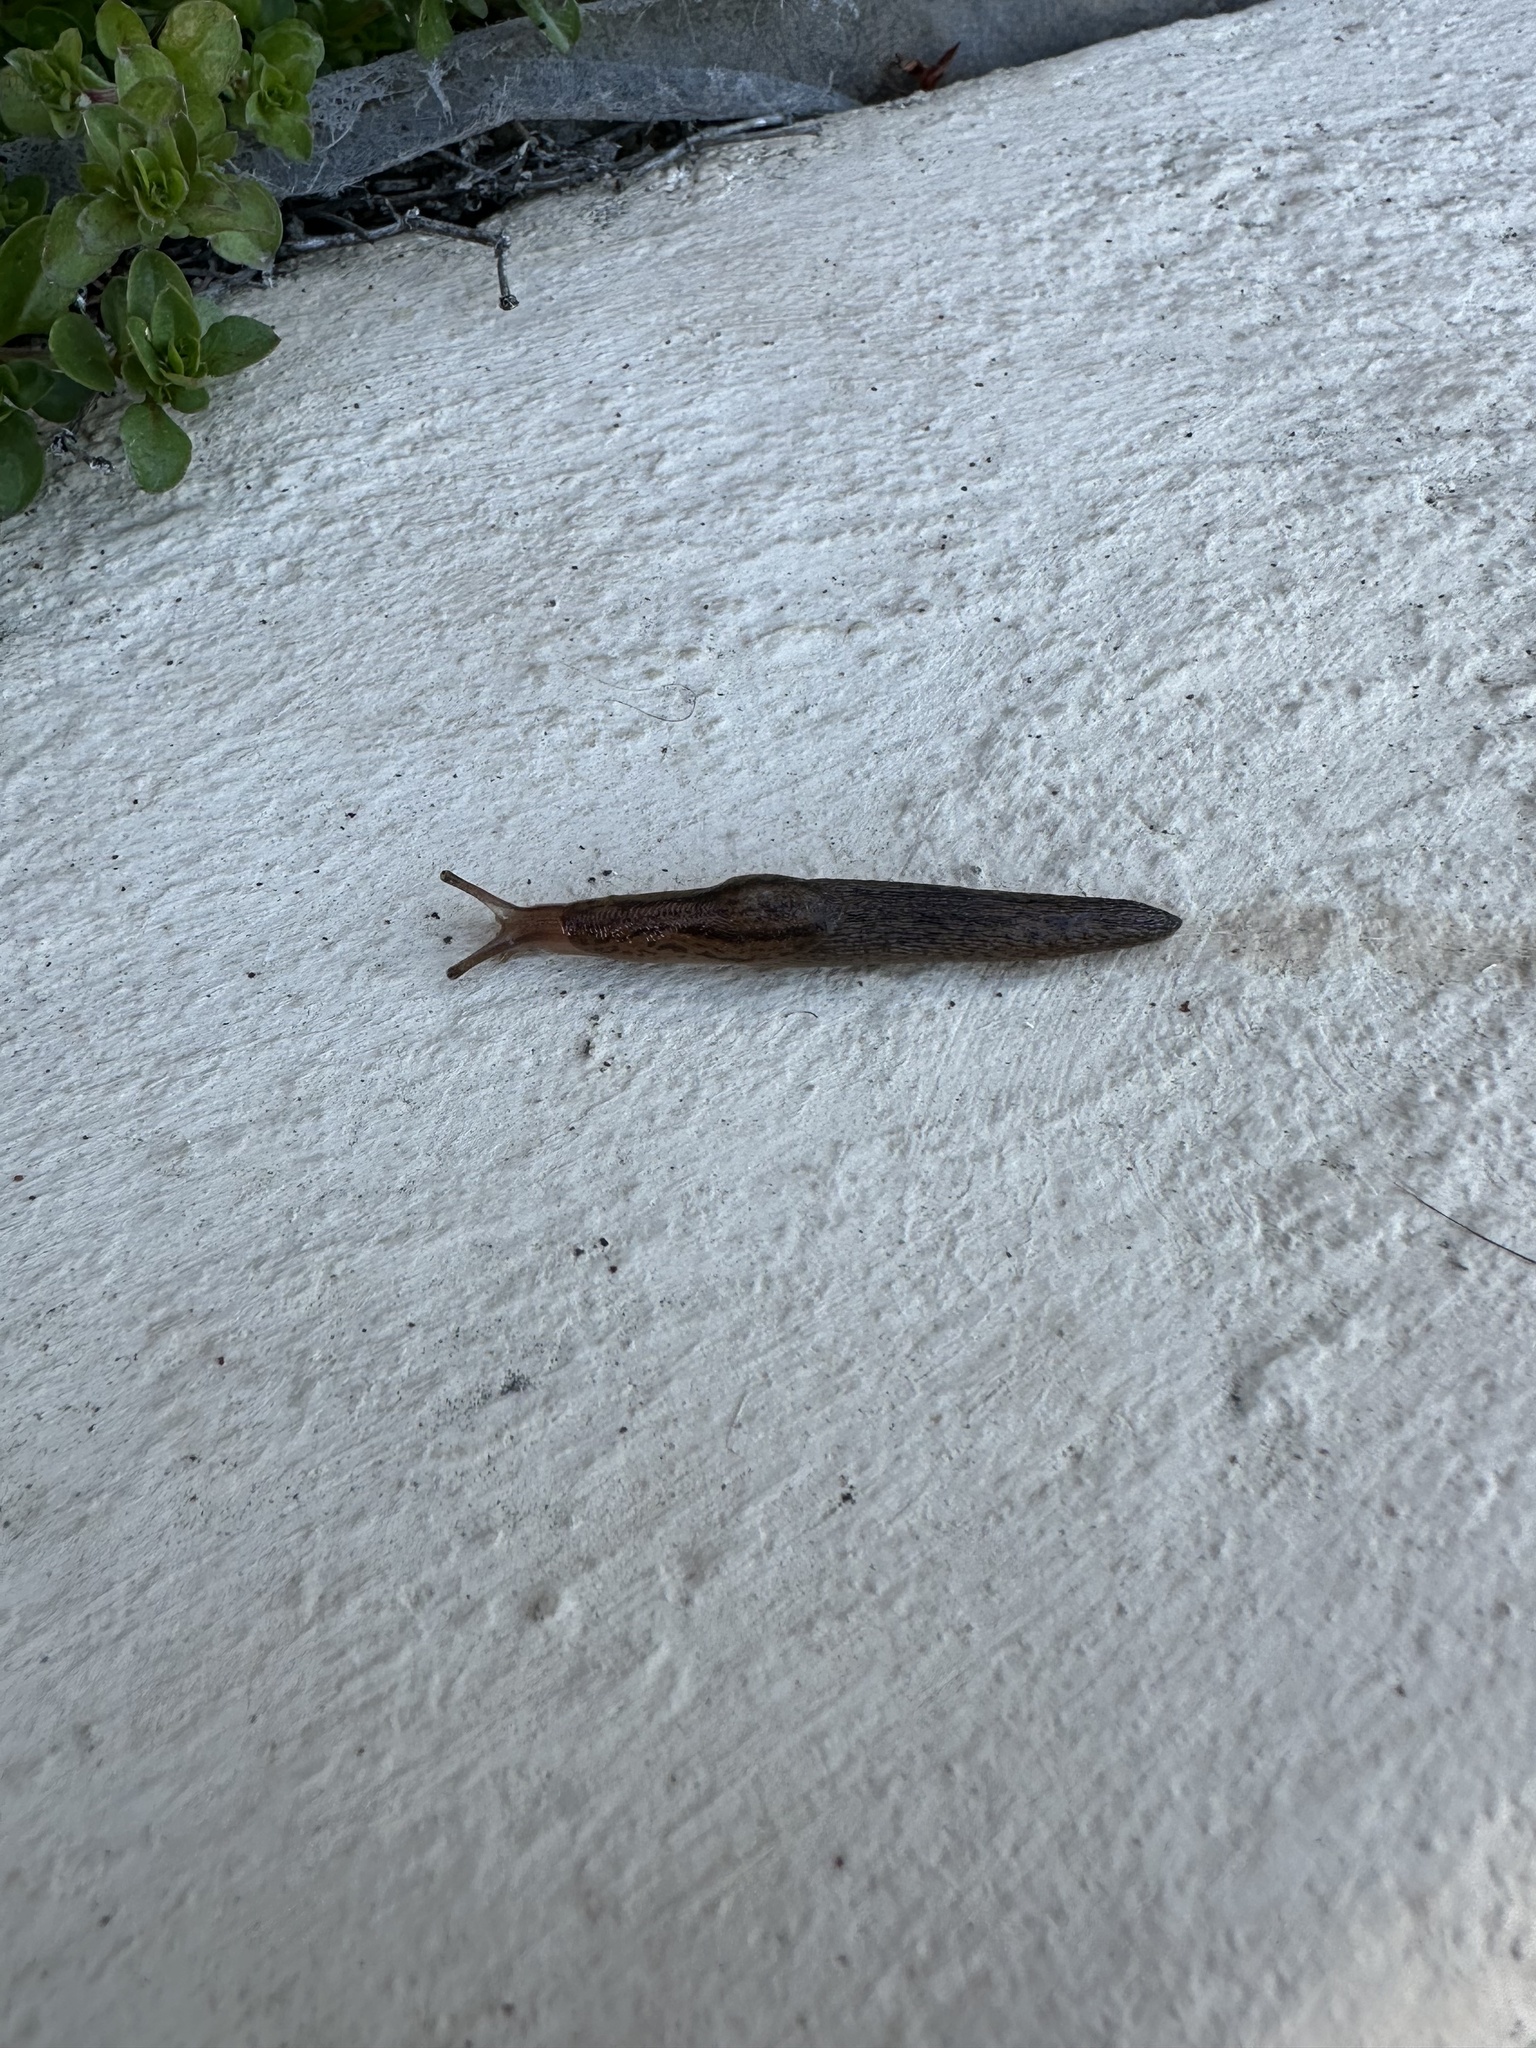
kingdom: Animalia
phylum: Mollusca
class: Gastropoda
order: Stylommatophora
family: Limacidae
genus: Ambigolimax
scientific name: Ambigolimax parvipenis
